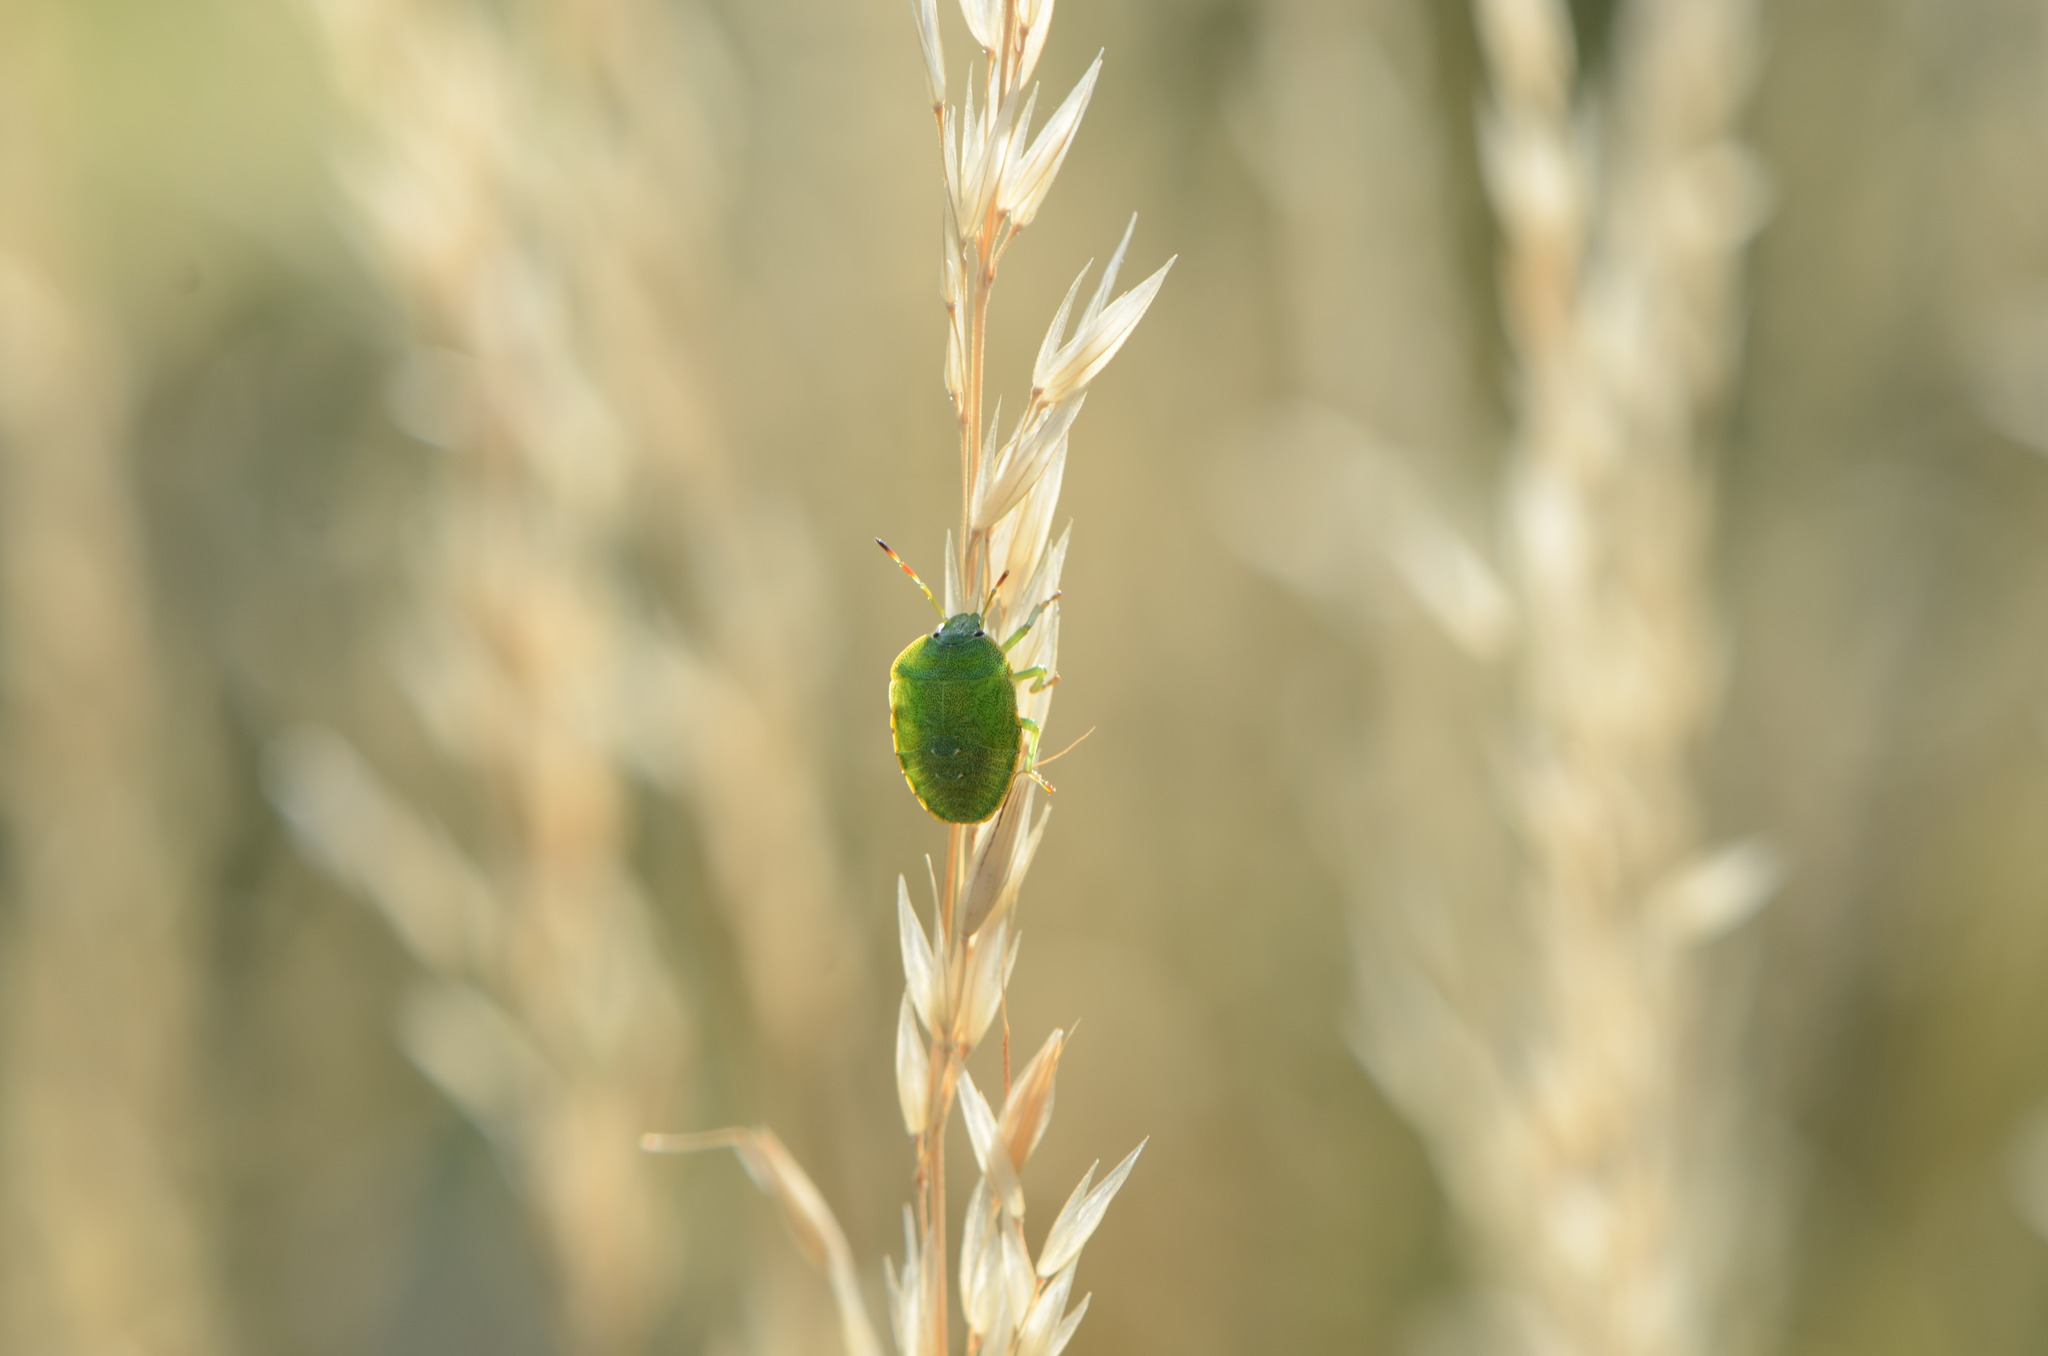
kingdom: Animalia
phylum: Arthropoda
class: Insecta
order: Hemiptera
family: Pentatomidae
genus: Palomena
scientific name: Palomena prasina
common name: Green shieldbug
